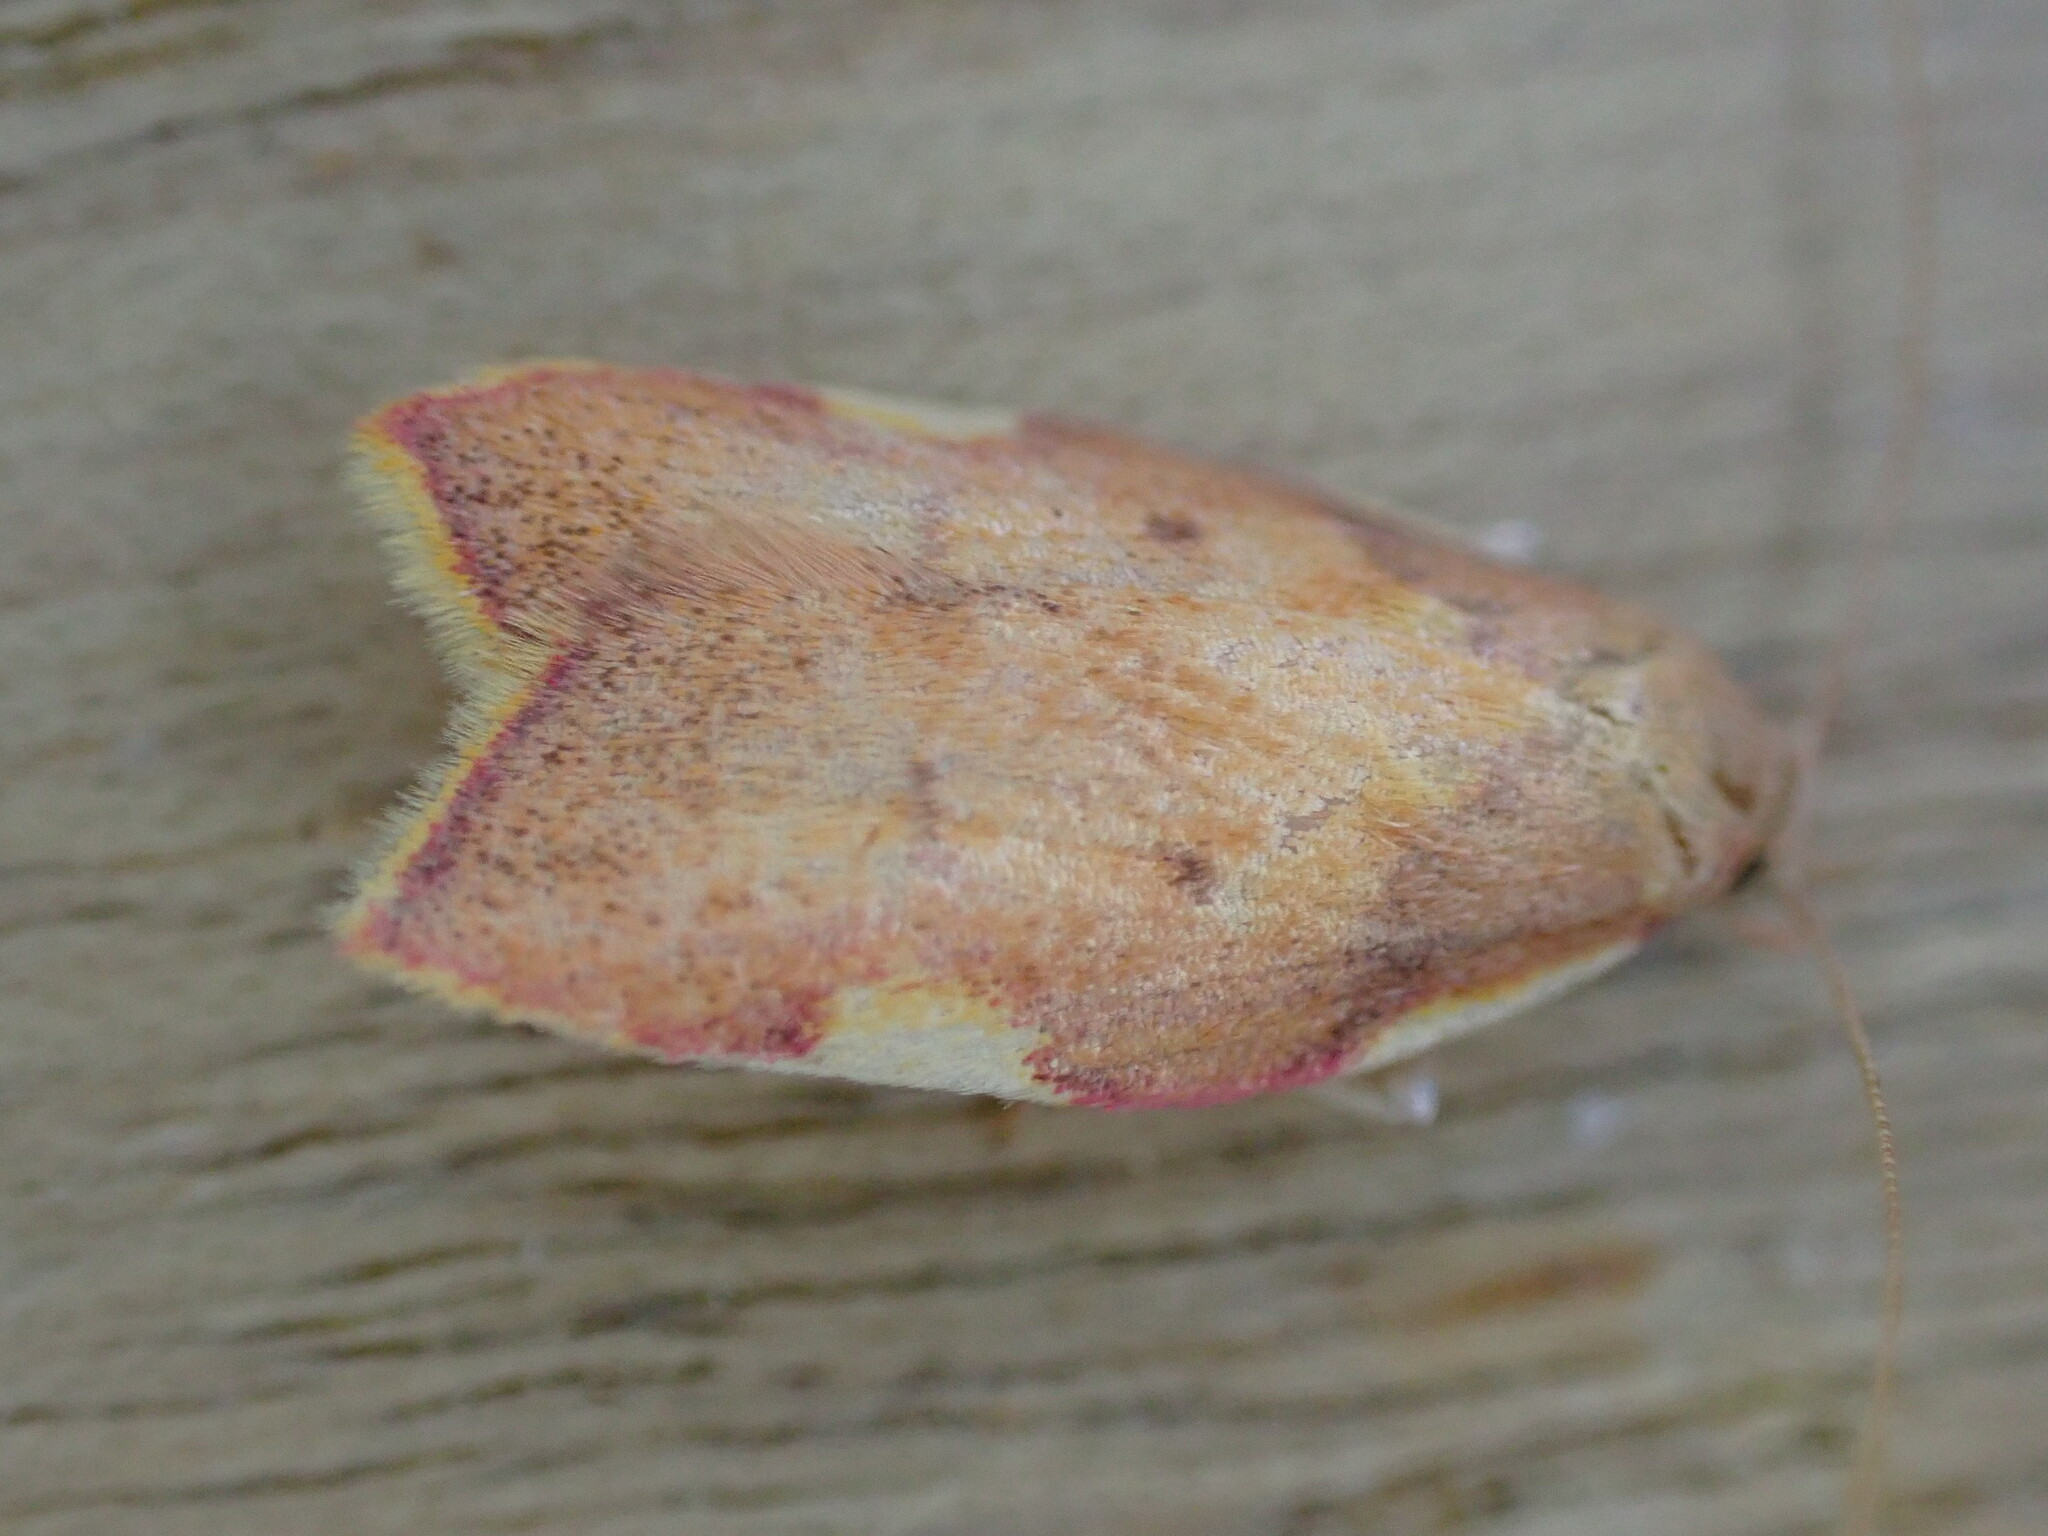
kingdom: Animalia
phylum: Arthropoda
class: Insecta
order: Lepidoptera
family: Peleopodidae
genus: Carcina
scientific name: Carcina quercana
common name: Moth
